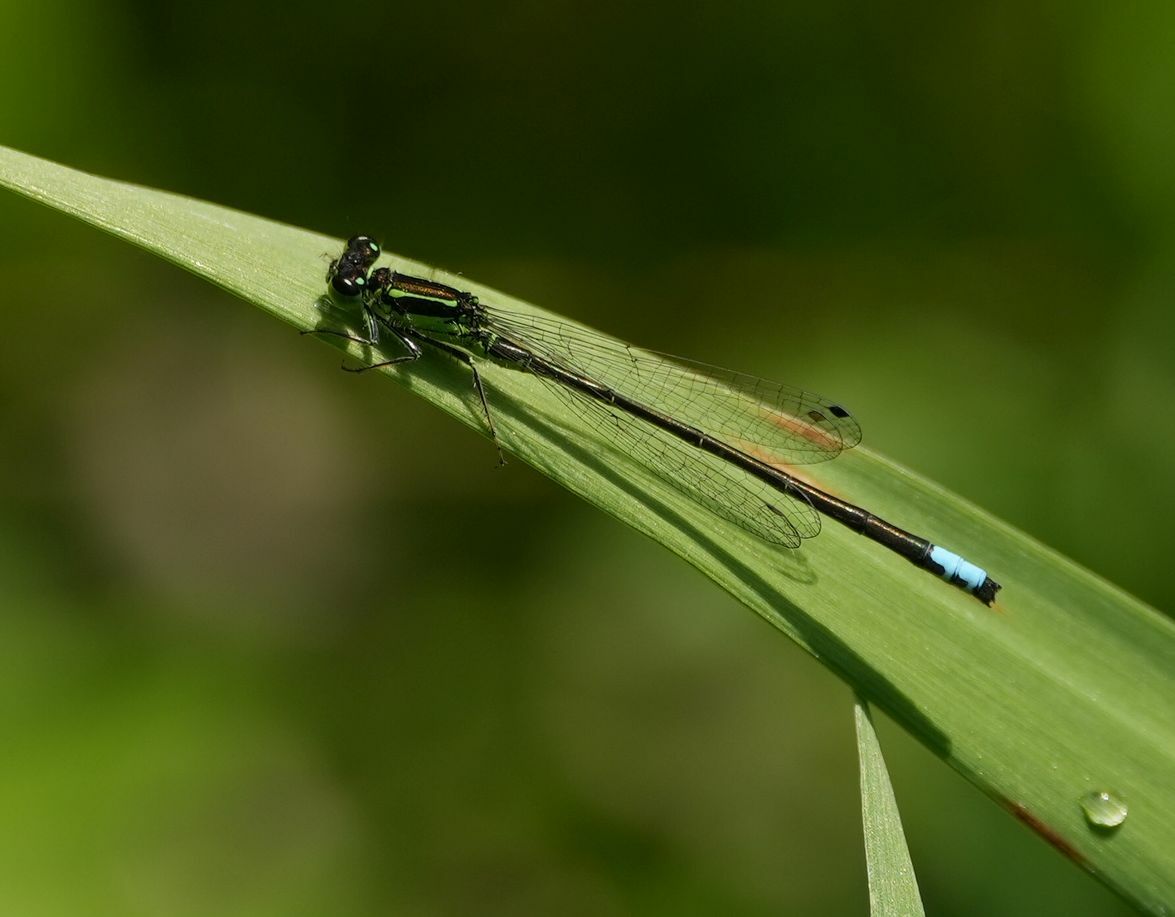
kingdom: Animalia
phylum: Arthropoda
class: Insecta
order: Odonata
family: Coenagrionidae
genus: Ischnura
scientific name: Ischnura verticalis
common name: Eastern forktail
